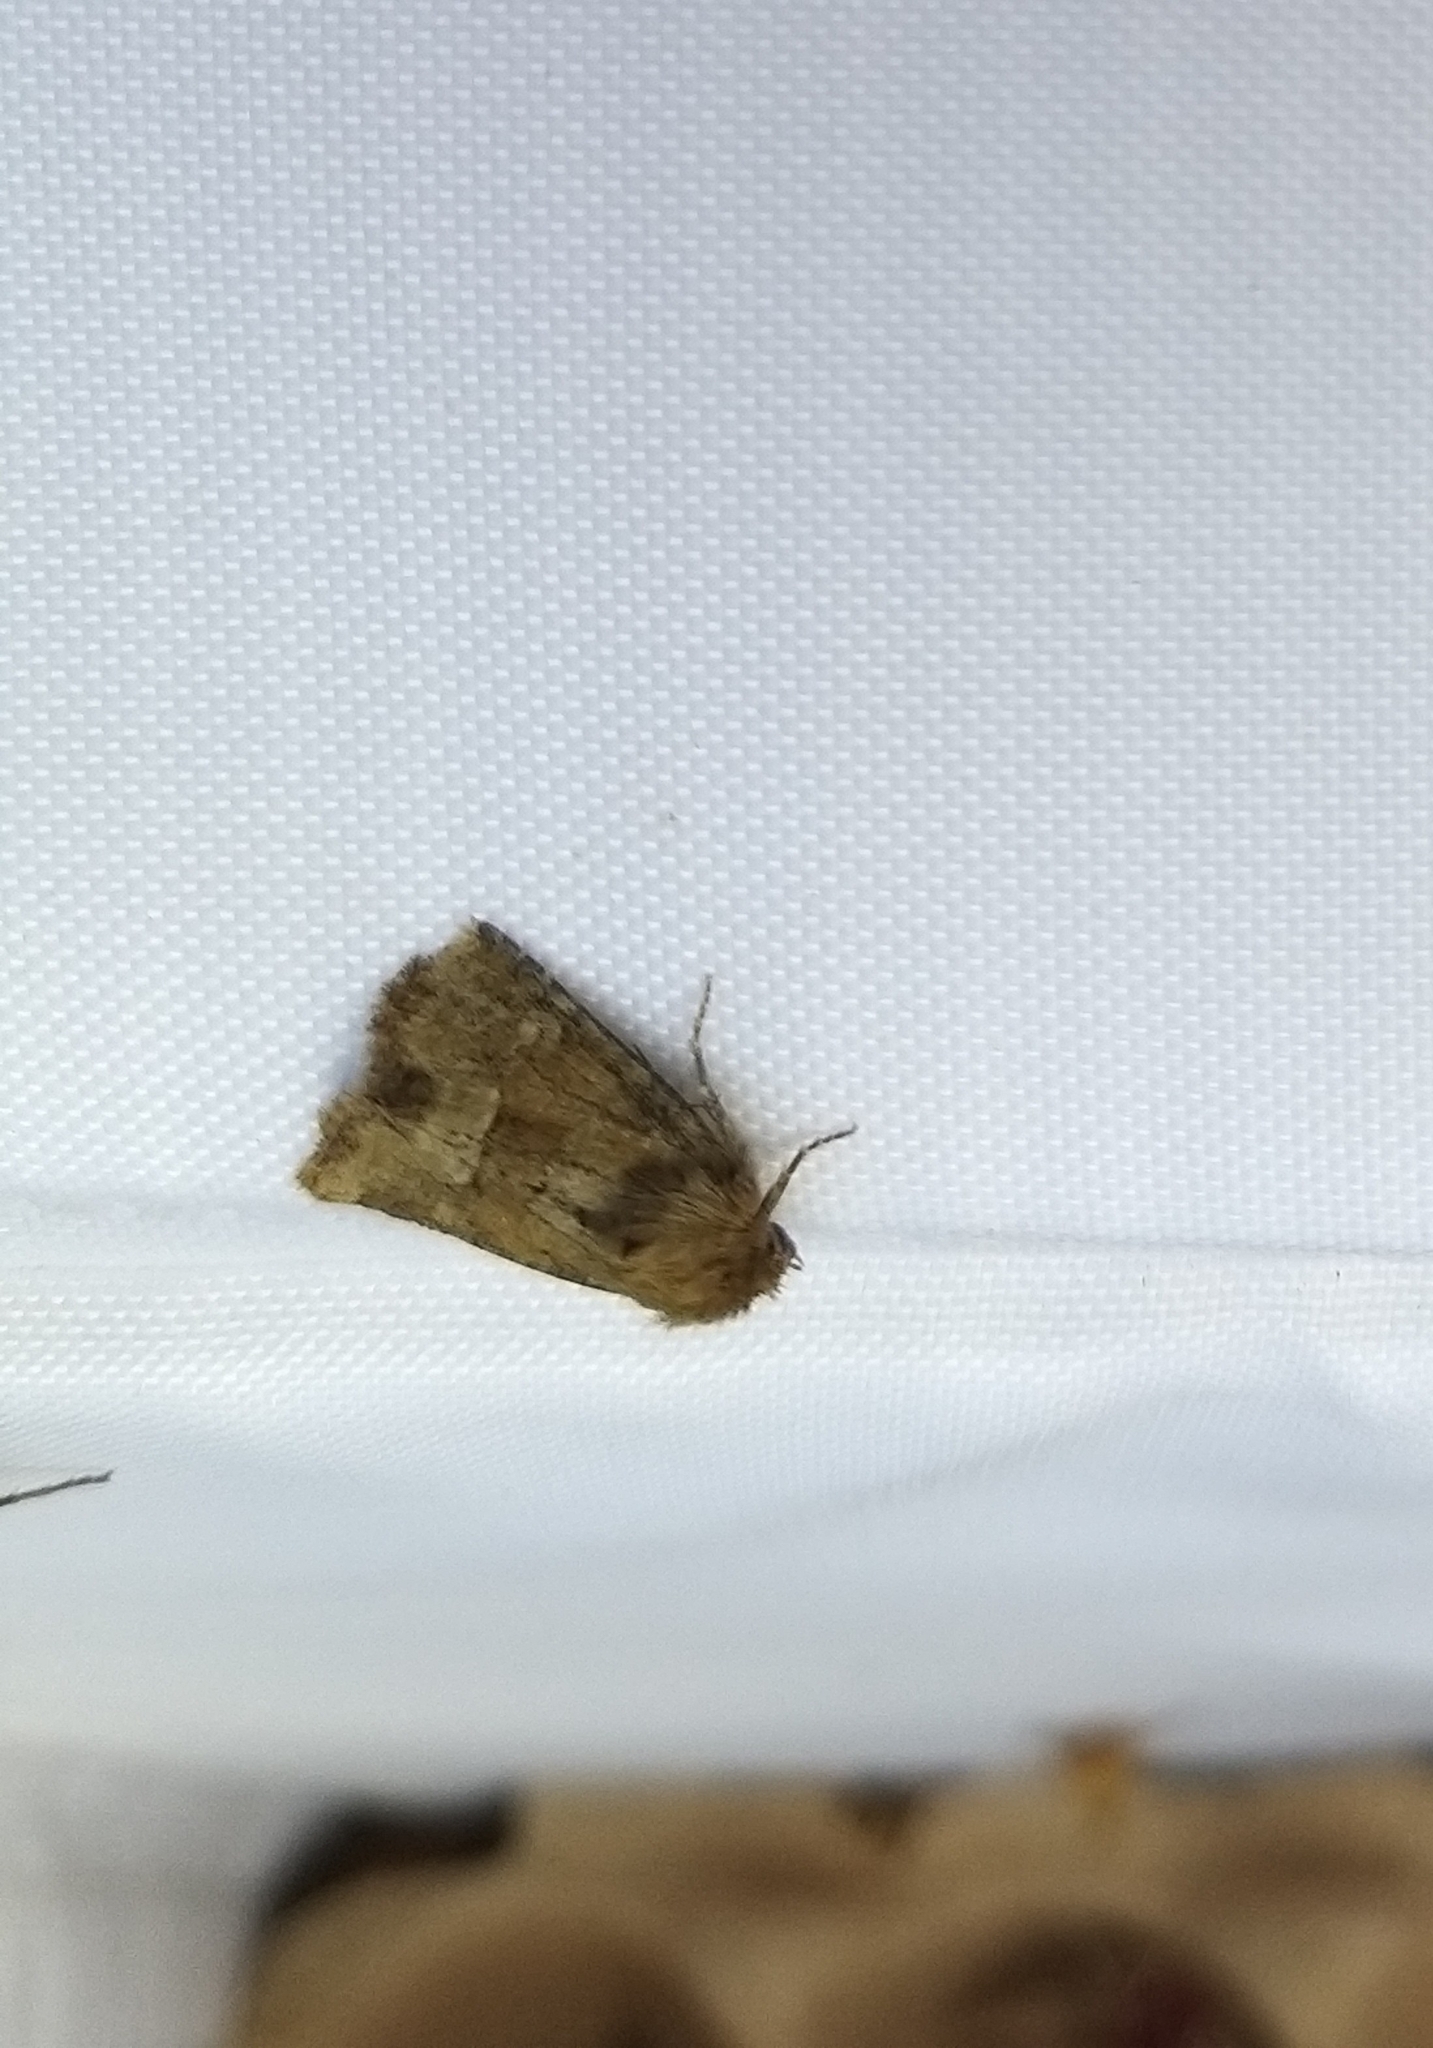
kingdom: Animalia
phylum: Arthropoda
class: Insecta
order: Lepidoptera
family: Noctuidae
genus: Oligia
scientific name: Oligia fasciuncula
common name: Middle-barred minor
